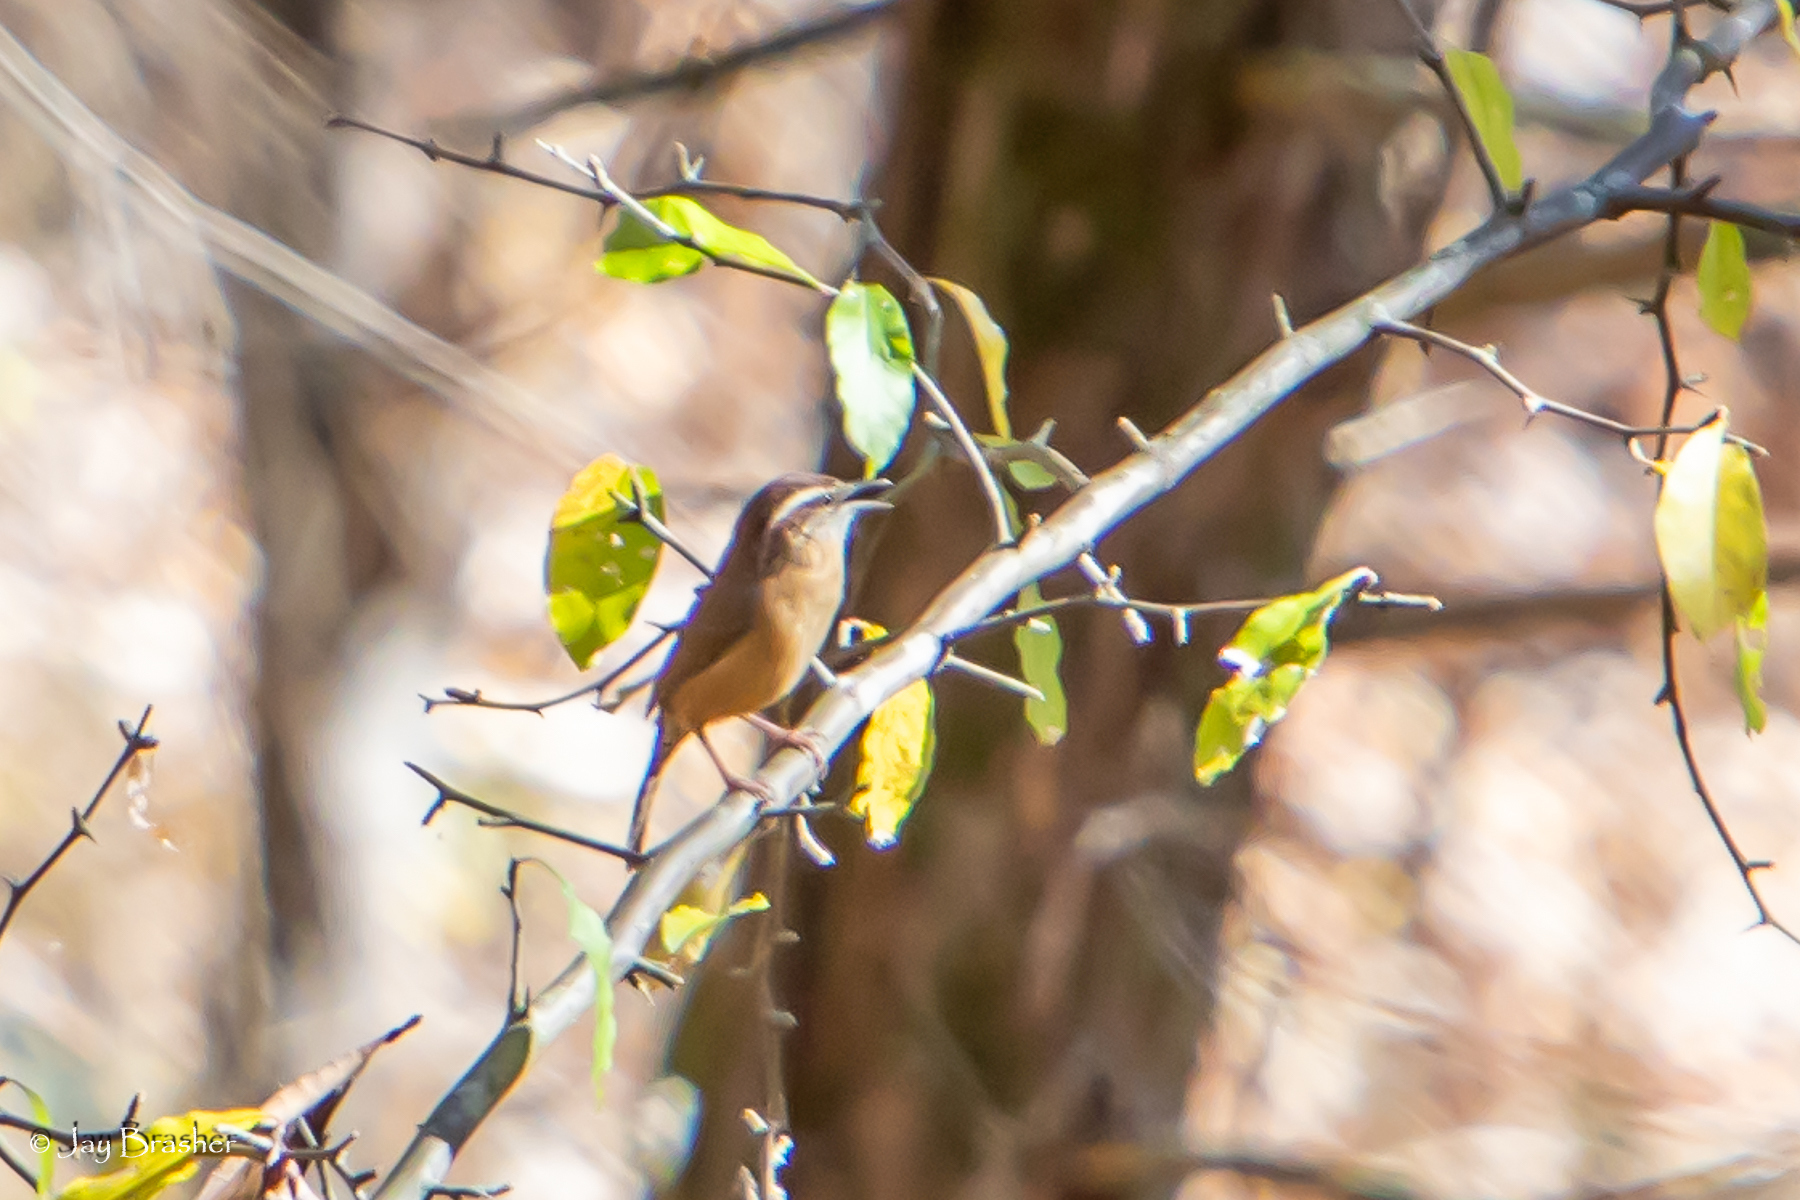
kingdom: Animalia
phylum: Chordata
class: Aves
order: Passeriformes
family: Troglodytidae
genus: Thryothorus
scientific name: Thryothorus ludovicianus
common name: Carolina wren
